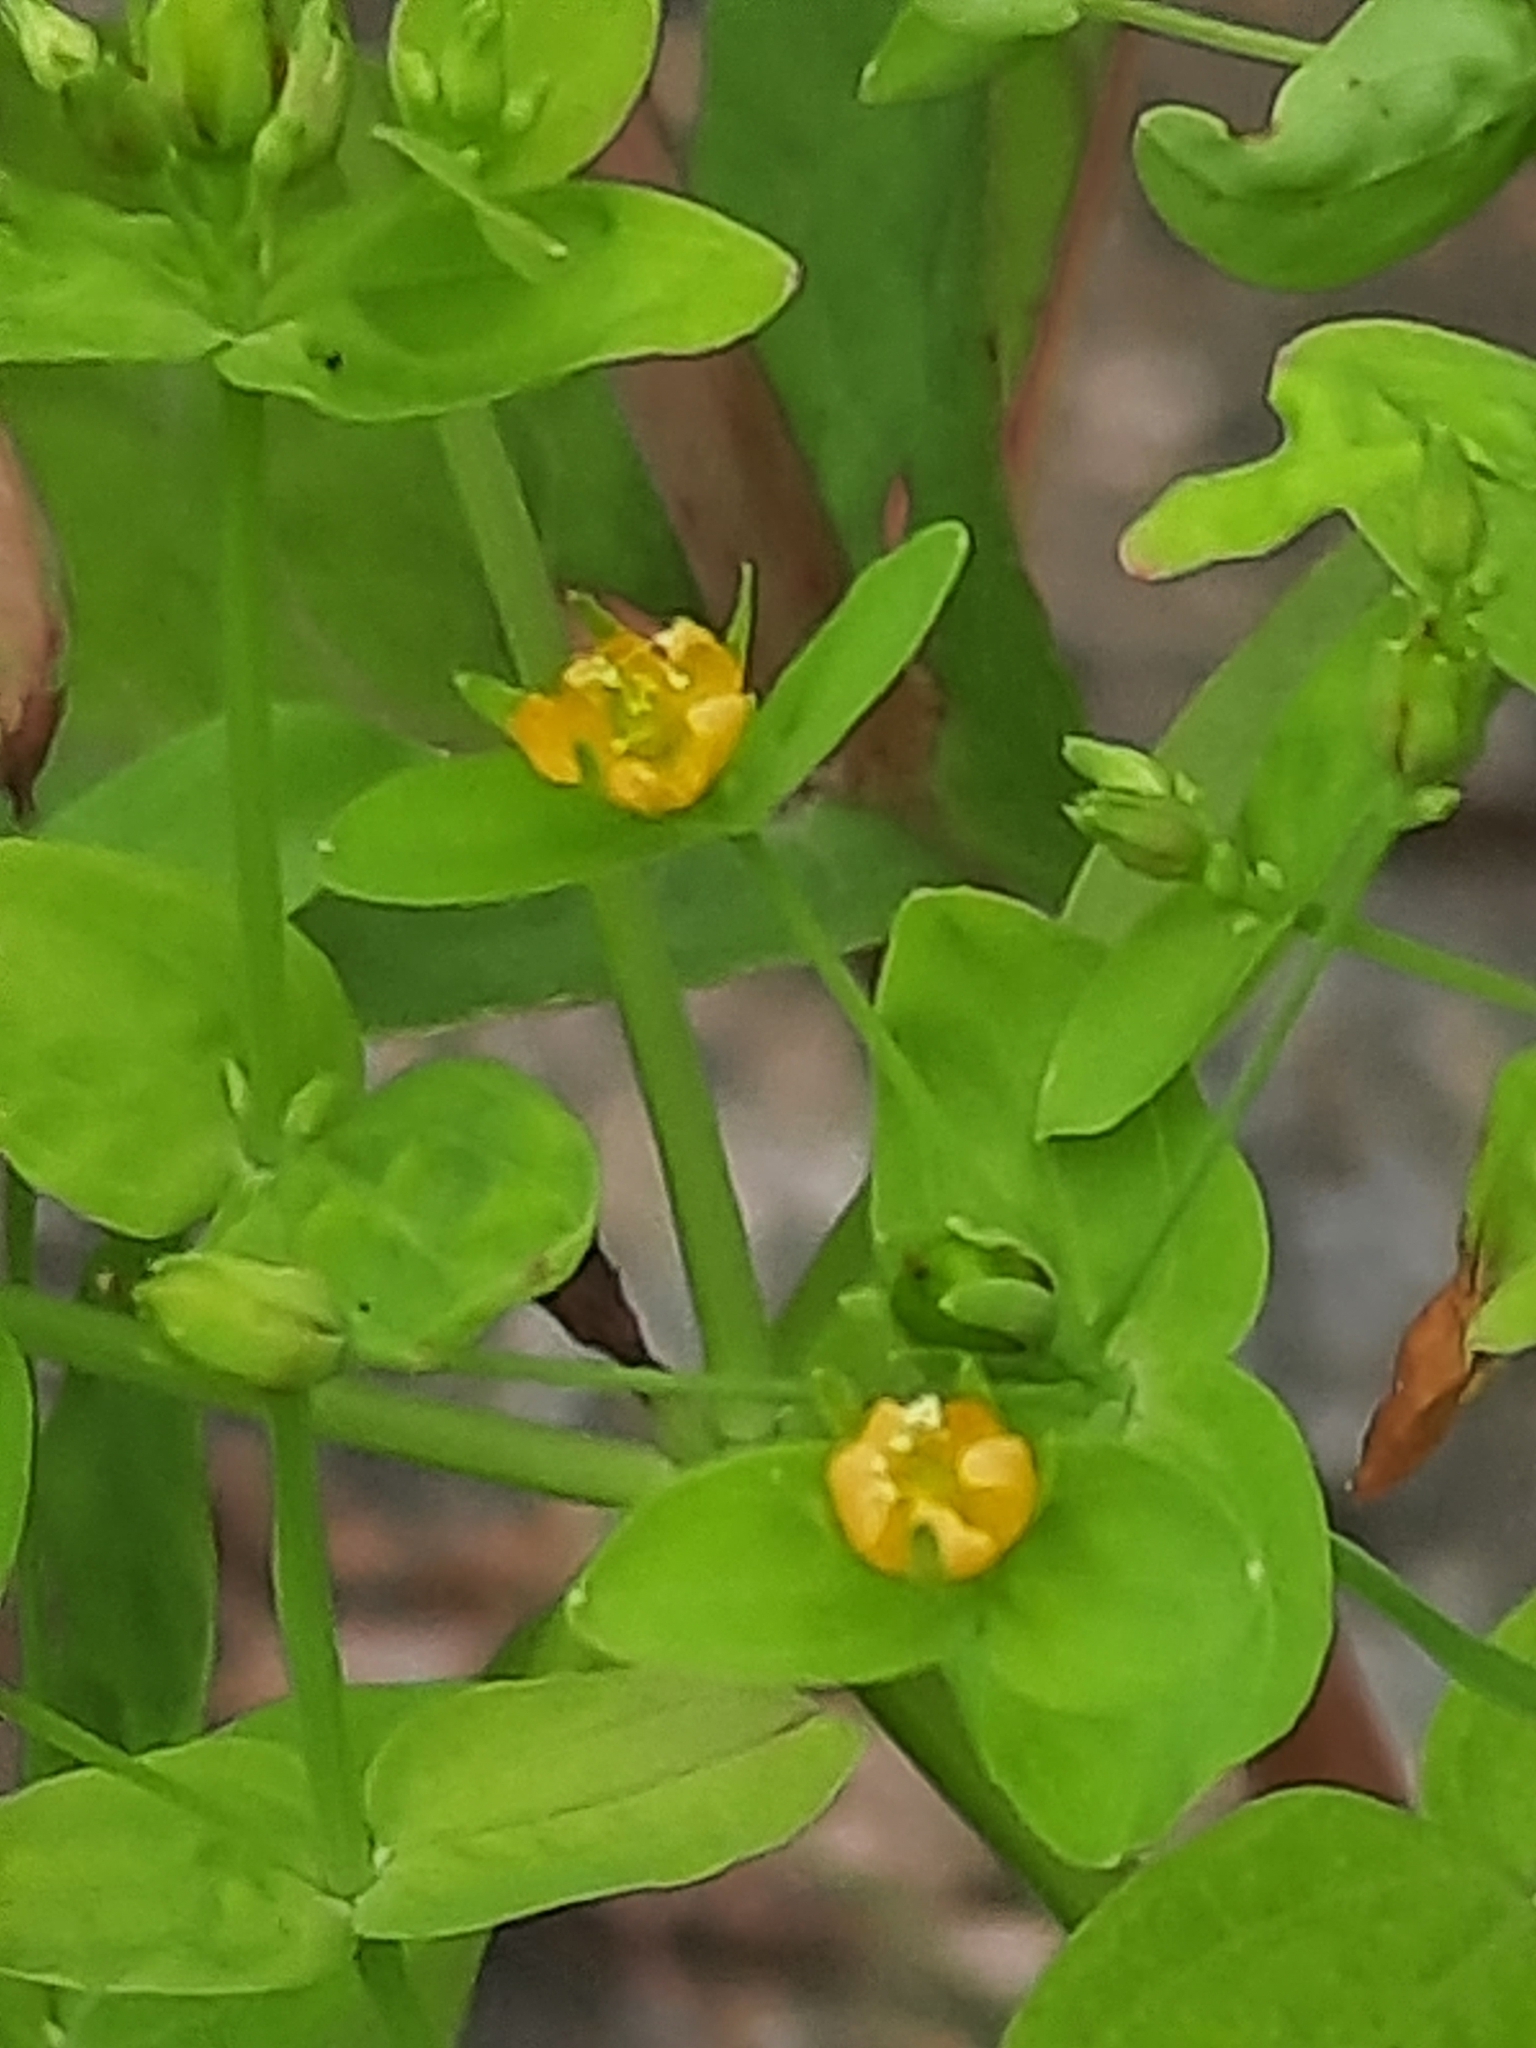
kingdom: Plantae
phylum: Tracheophyta
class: Magnoliopsida
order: Malpighiales
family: Hypericaceae
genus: Hypericum
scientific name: Hypericum mutilum
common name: Dwarf st. john's-wort
